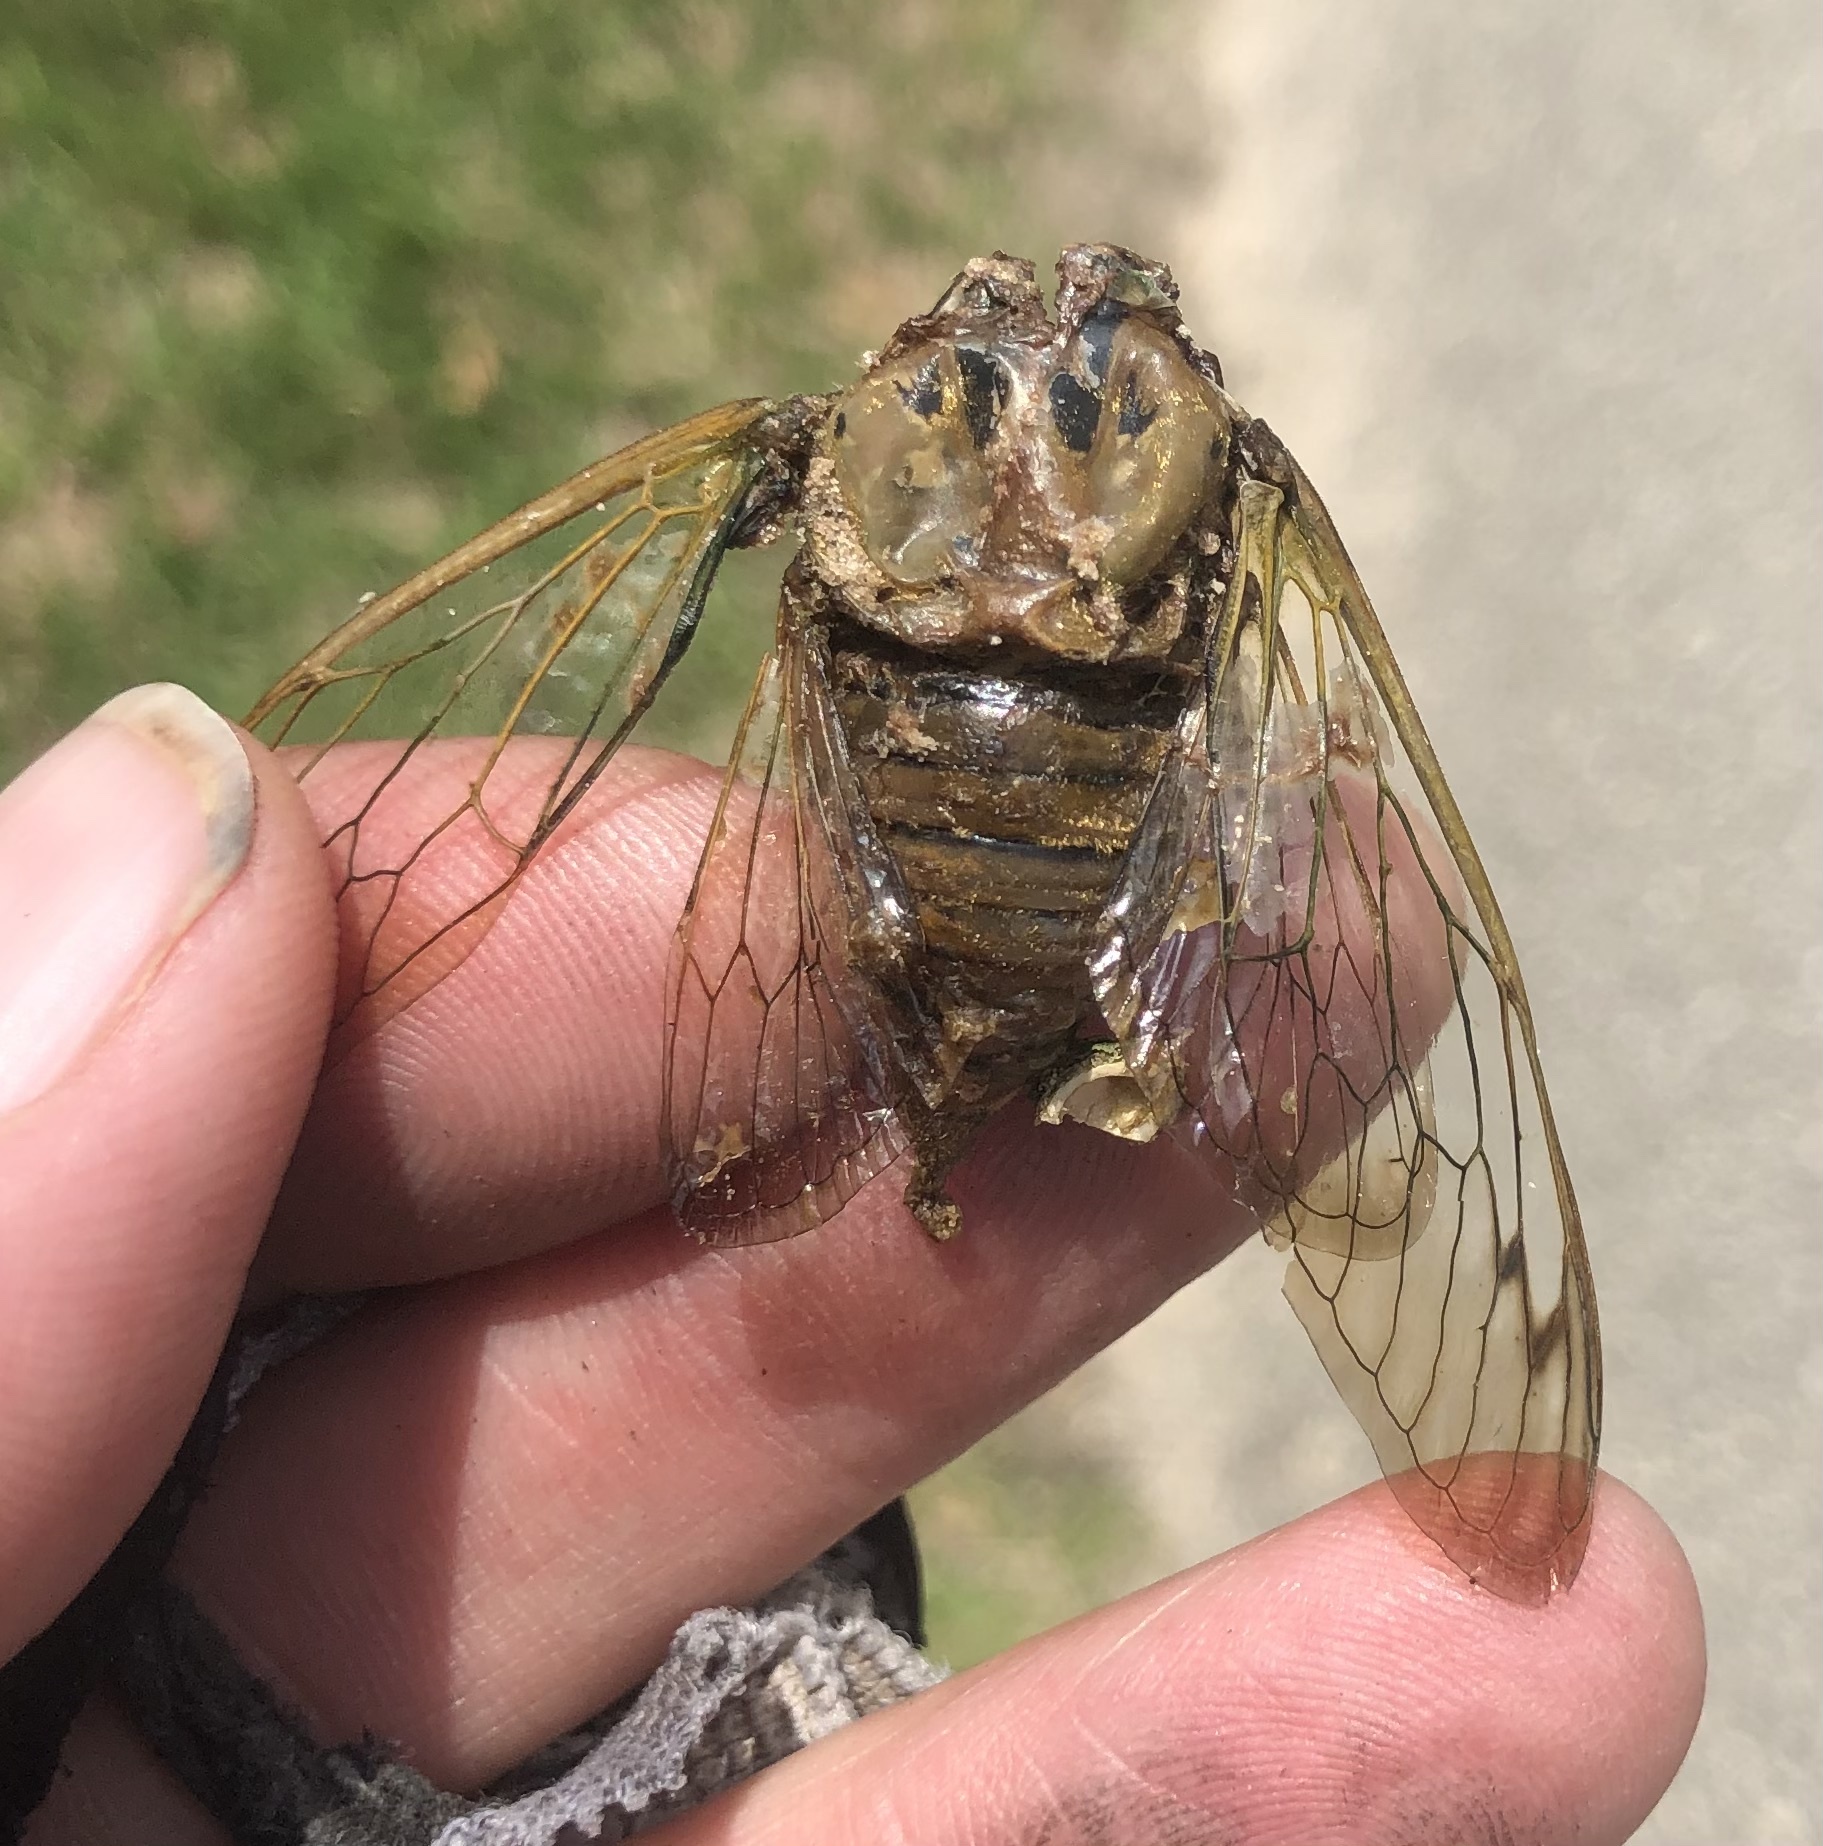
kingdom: Animalia
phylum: Arthropoda
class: Insecta
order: Hemiptera
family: Cicadidae
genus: Neotibicen
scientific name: Neotibicen superbus
